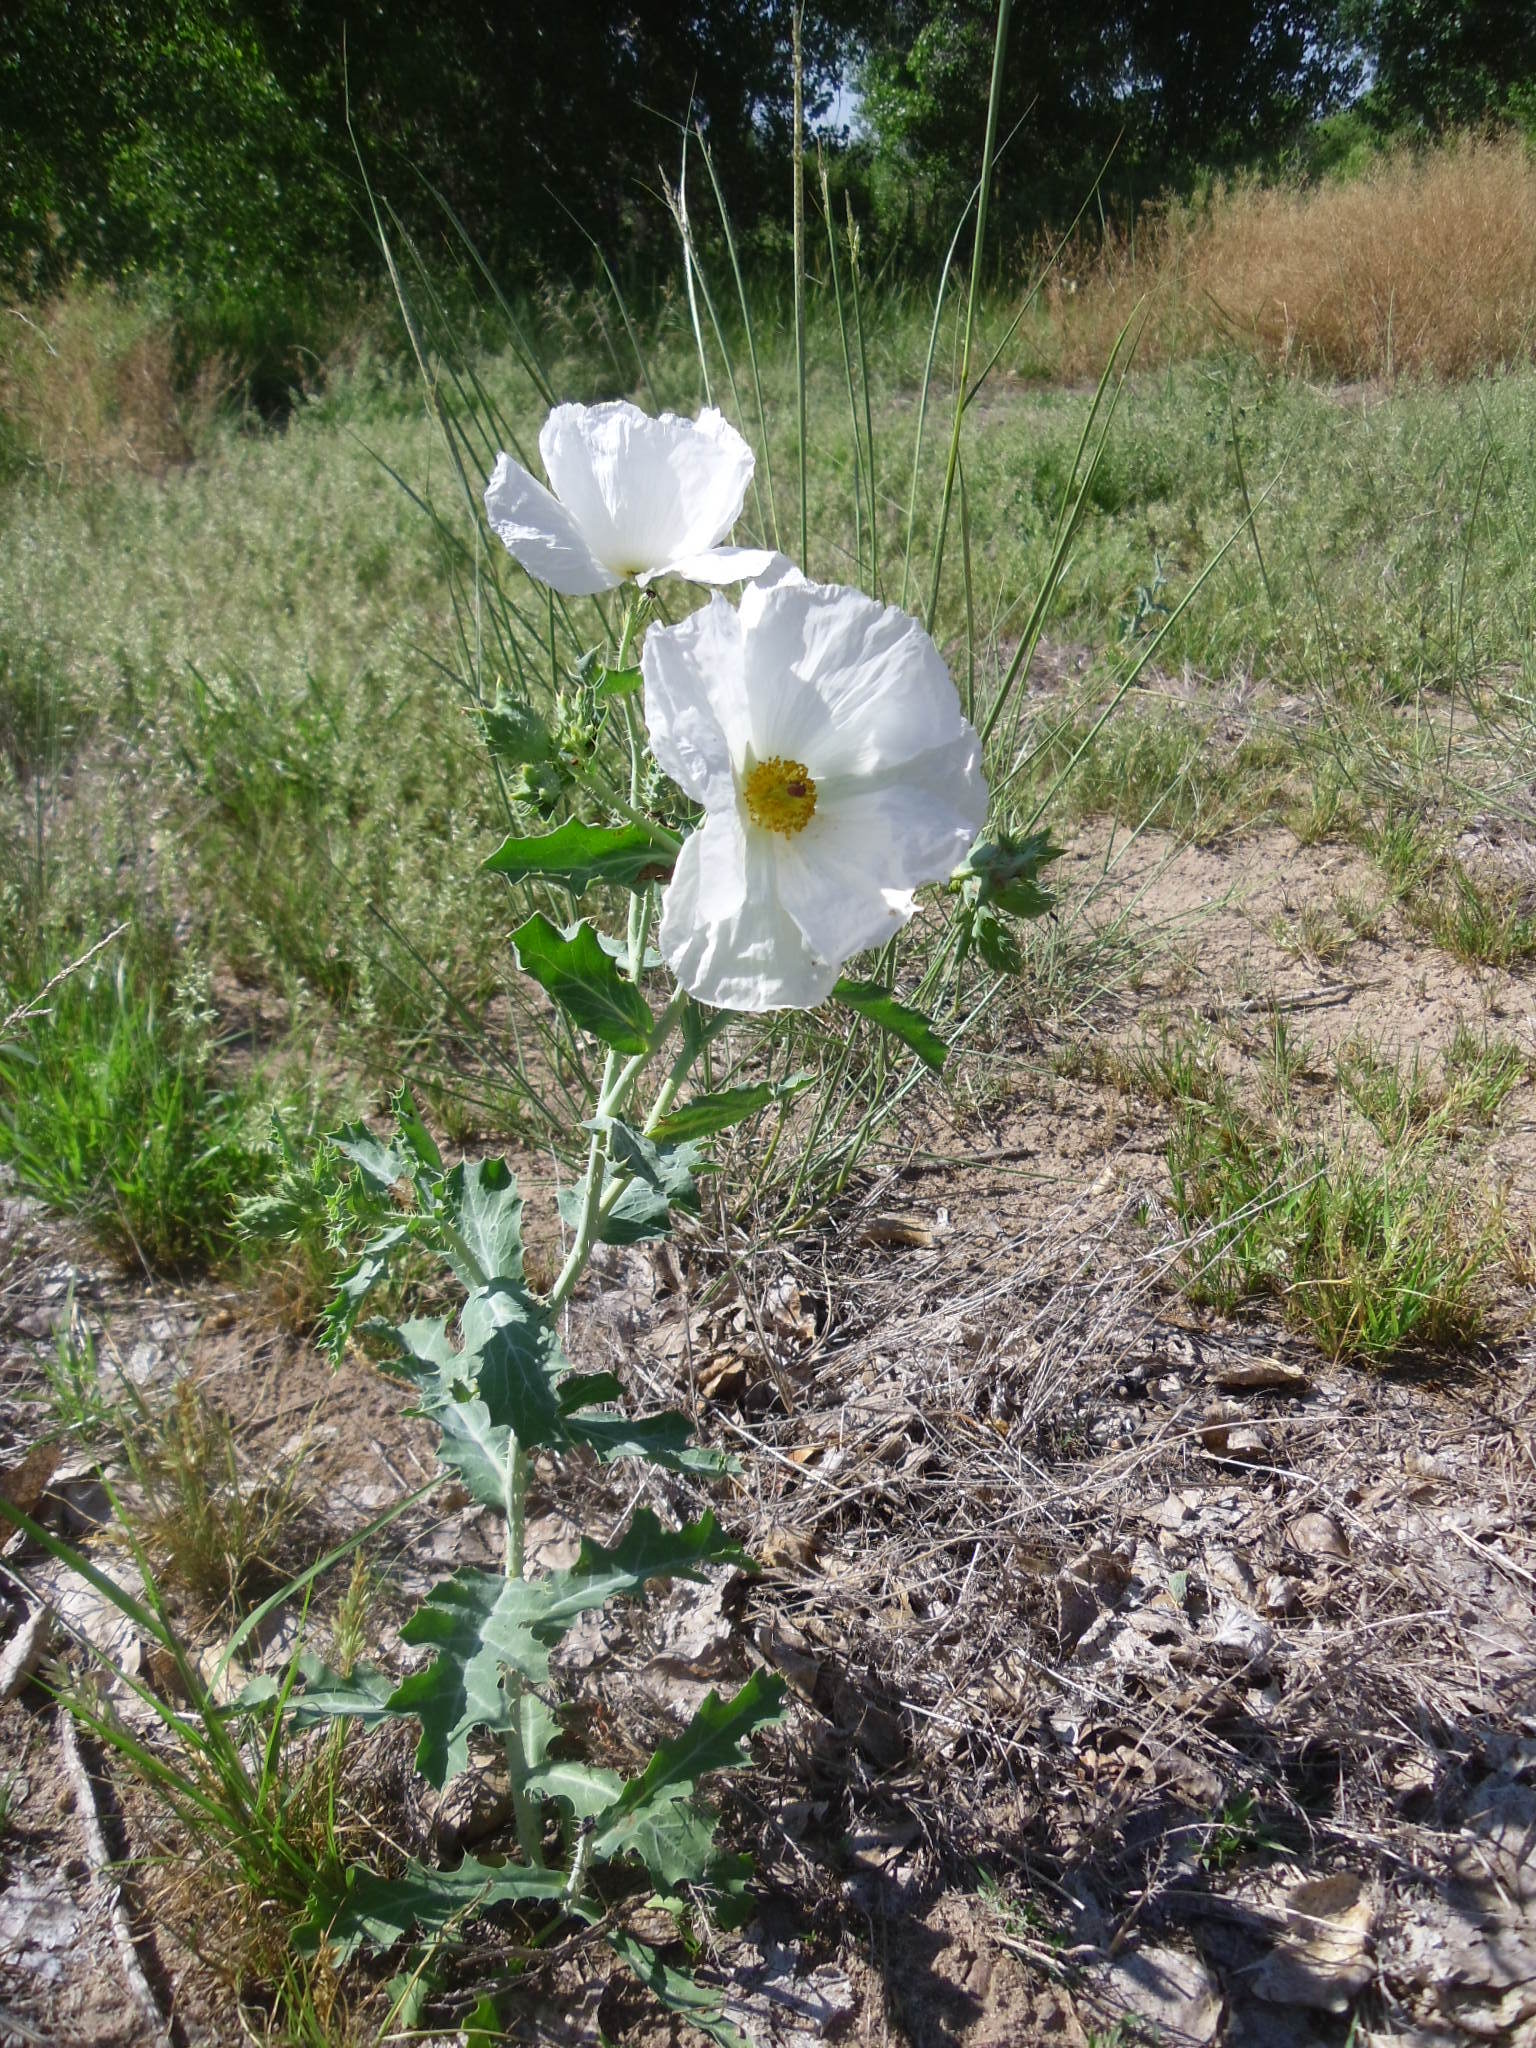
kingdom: Plantae
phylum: Tracheophyta
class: Magnoliopsida
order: Ranunculales
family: Papaveraceae
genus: Argemone
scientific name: Argemone polyanthemos
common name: Plains prickly-poppy
